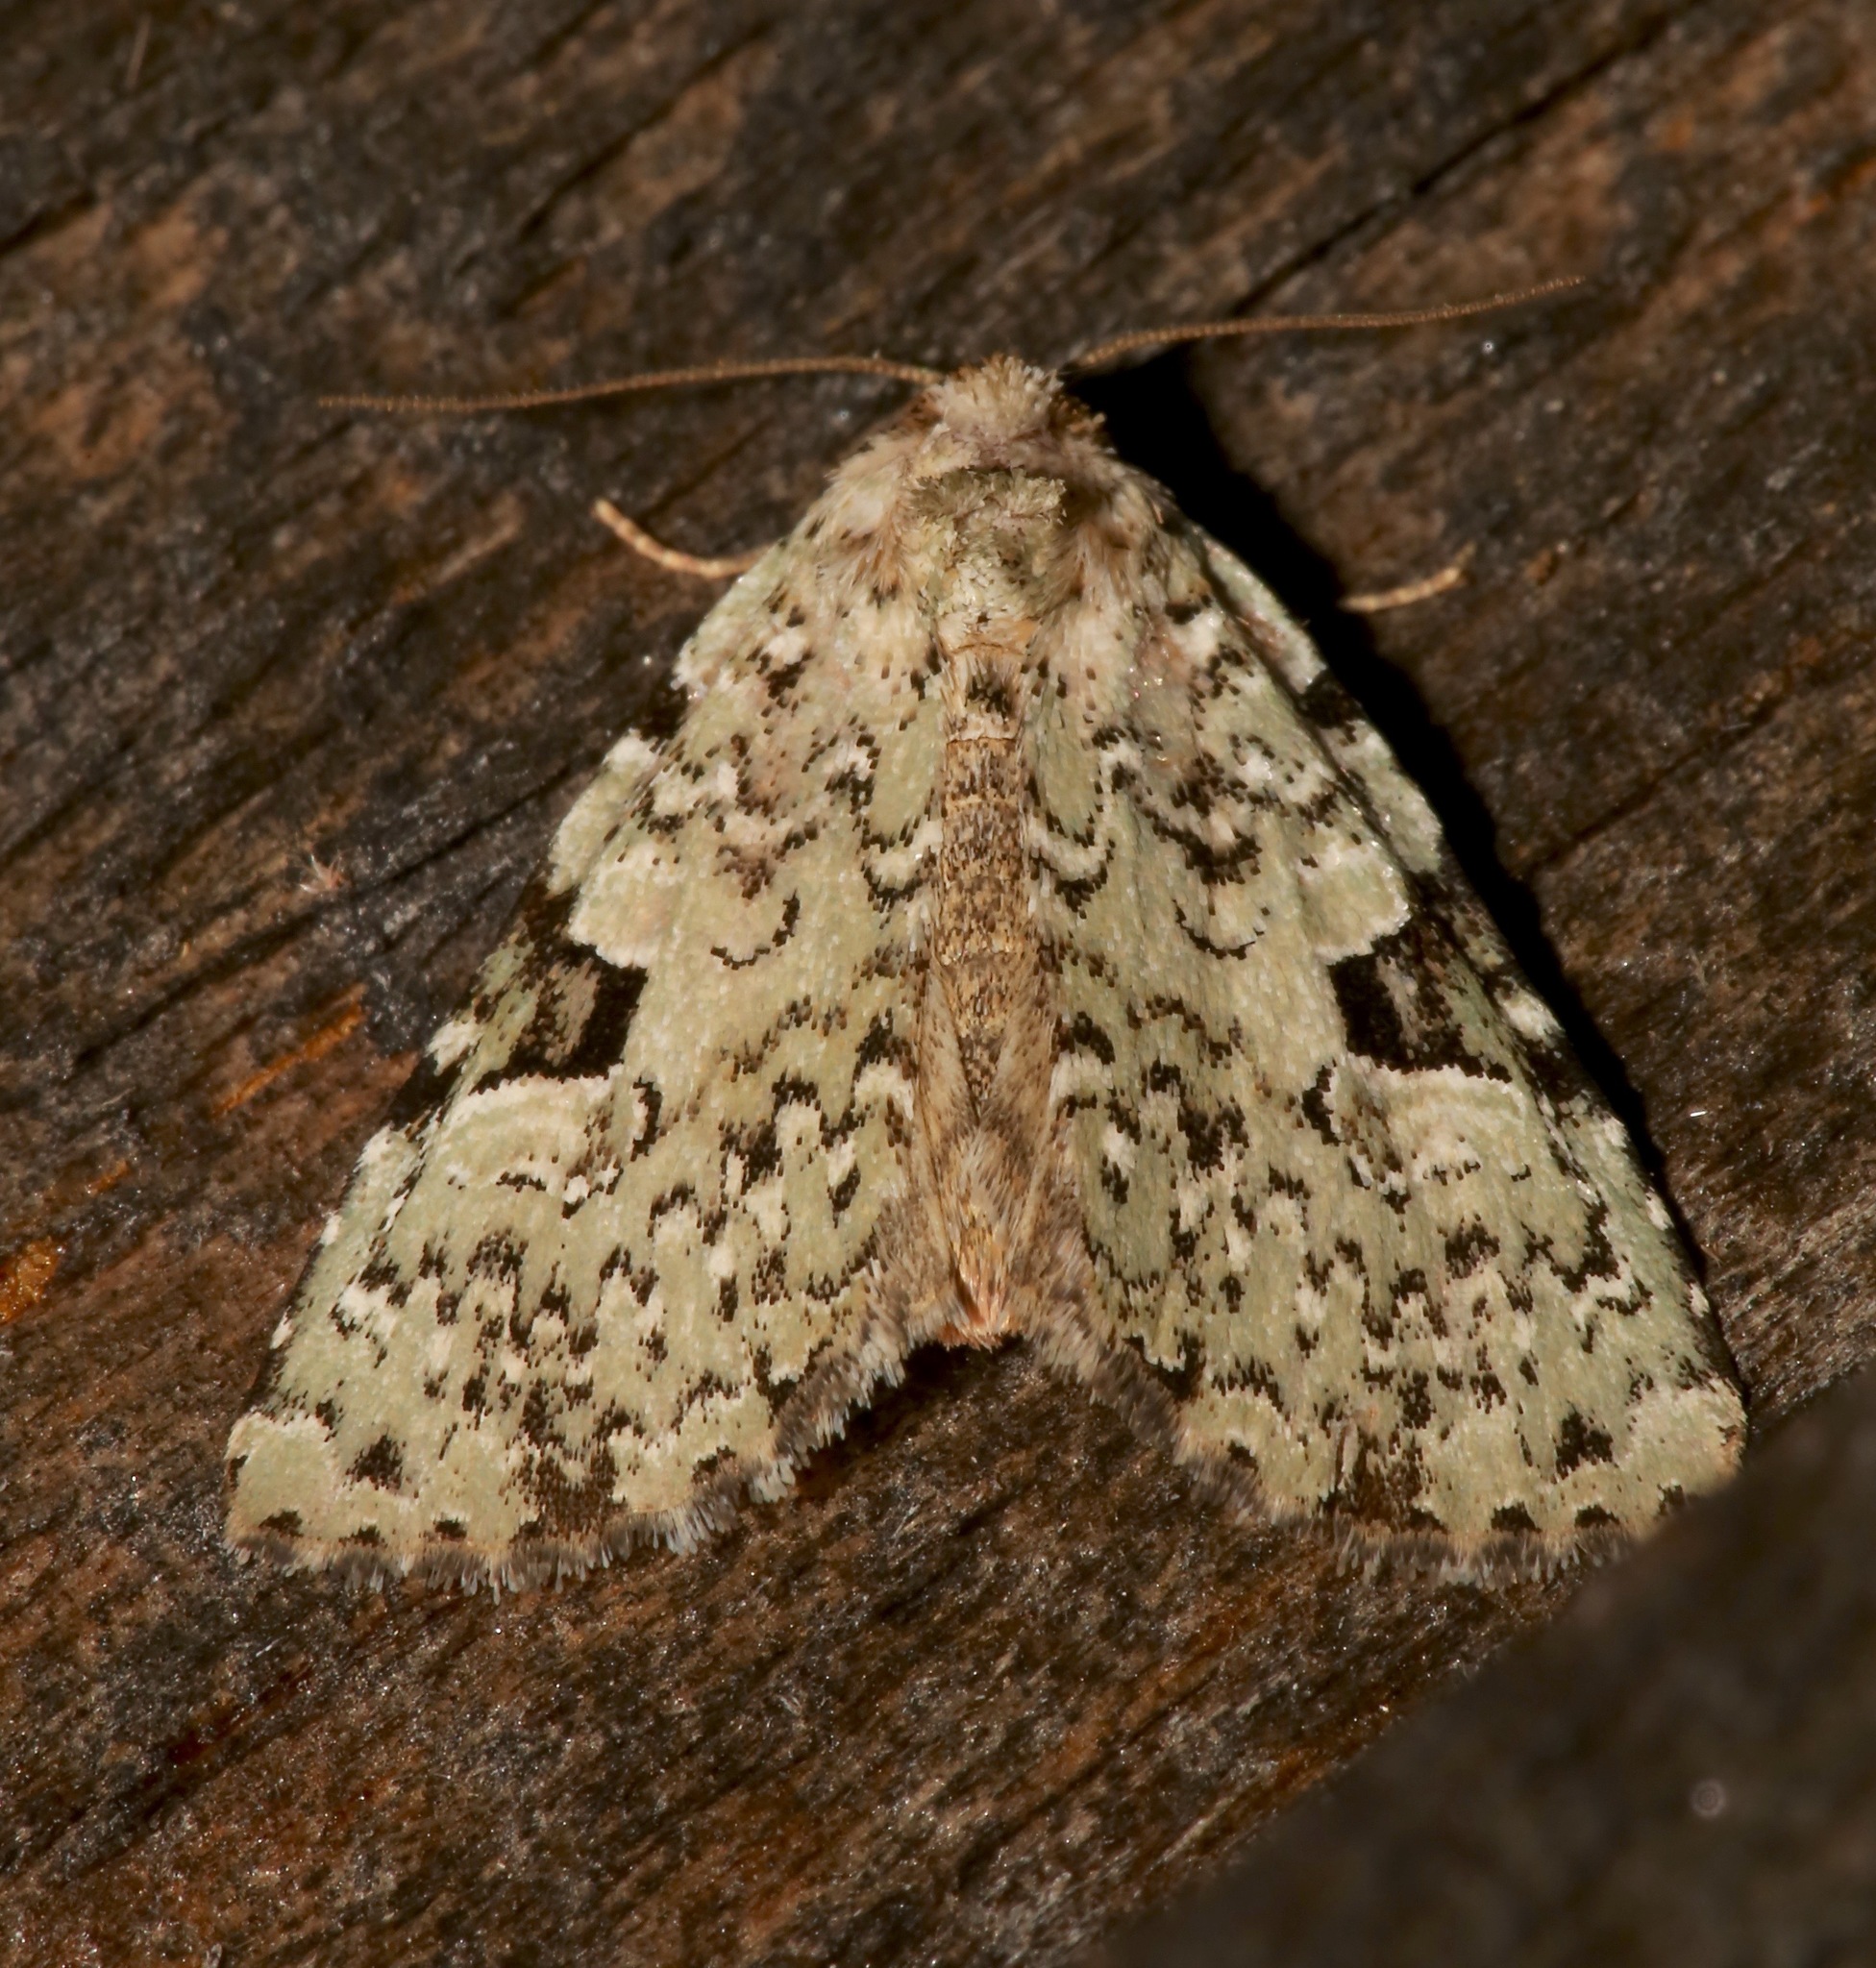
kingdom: Animalia
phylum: Arthropoda
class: Insecta
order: Lepidoptera
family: Noctuidae
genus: Leuconycta
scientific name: Leuconycta diphteroides
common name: Green leuconycta moth
